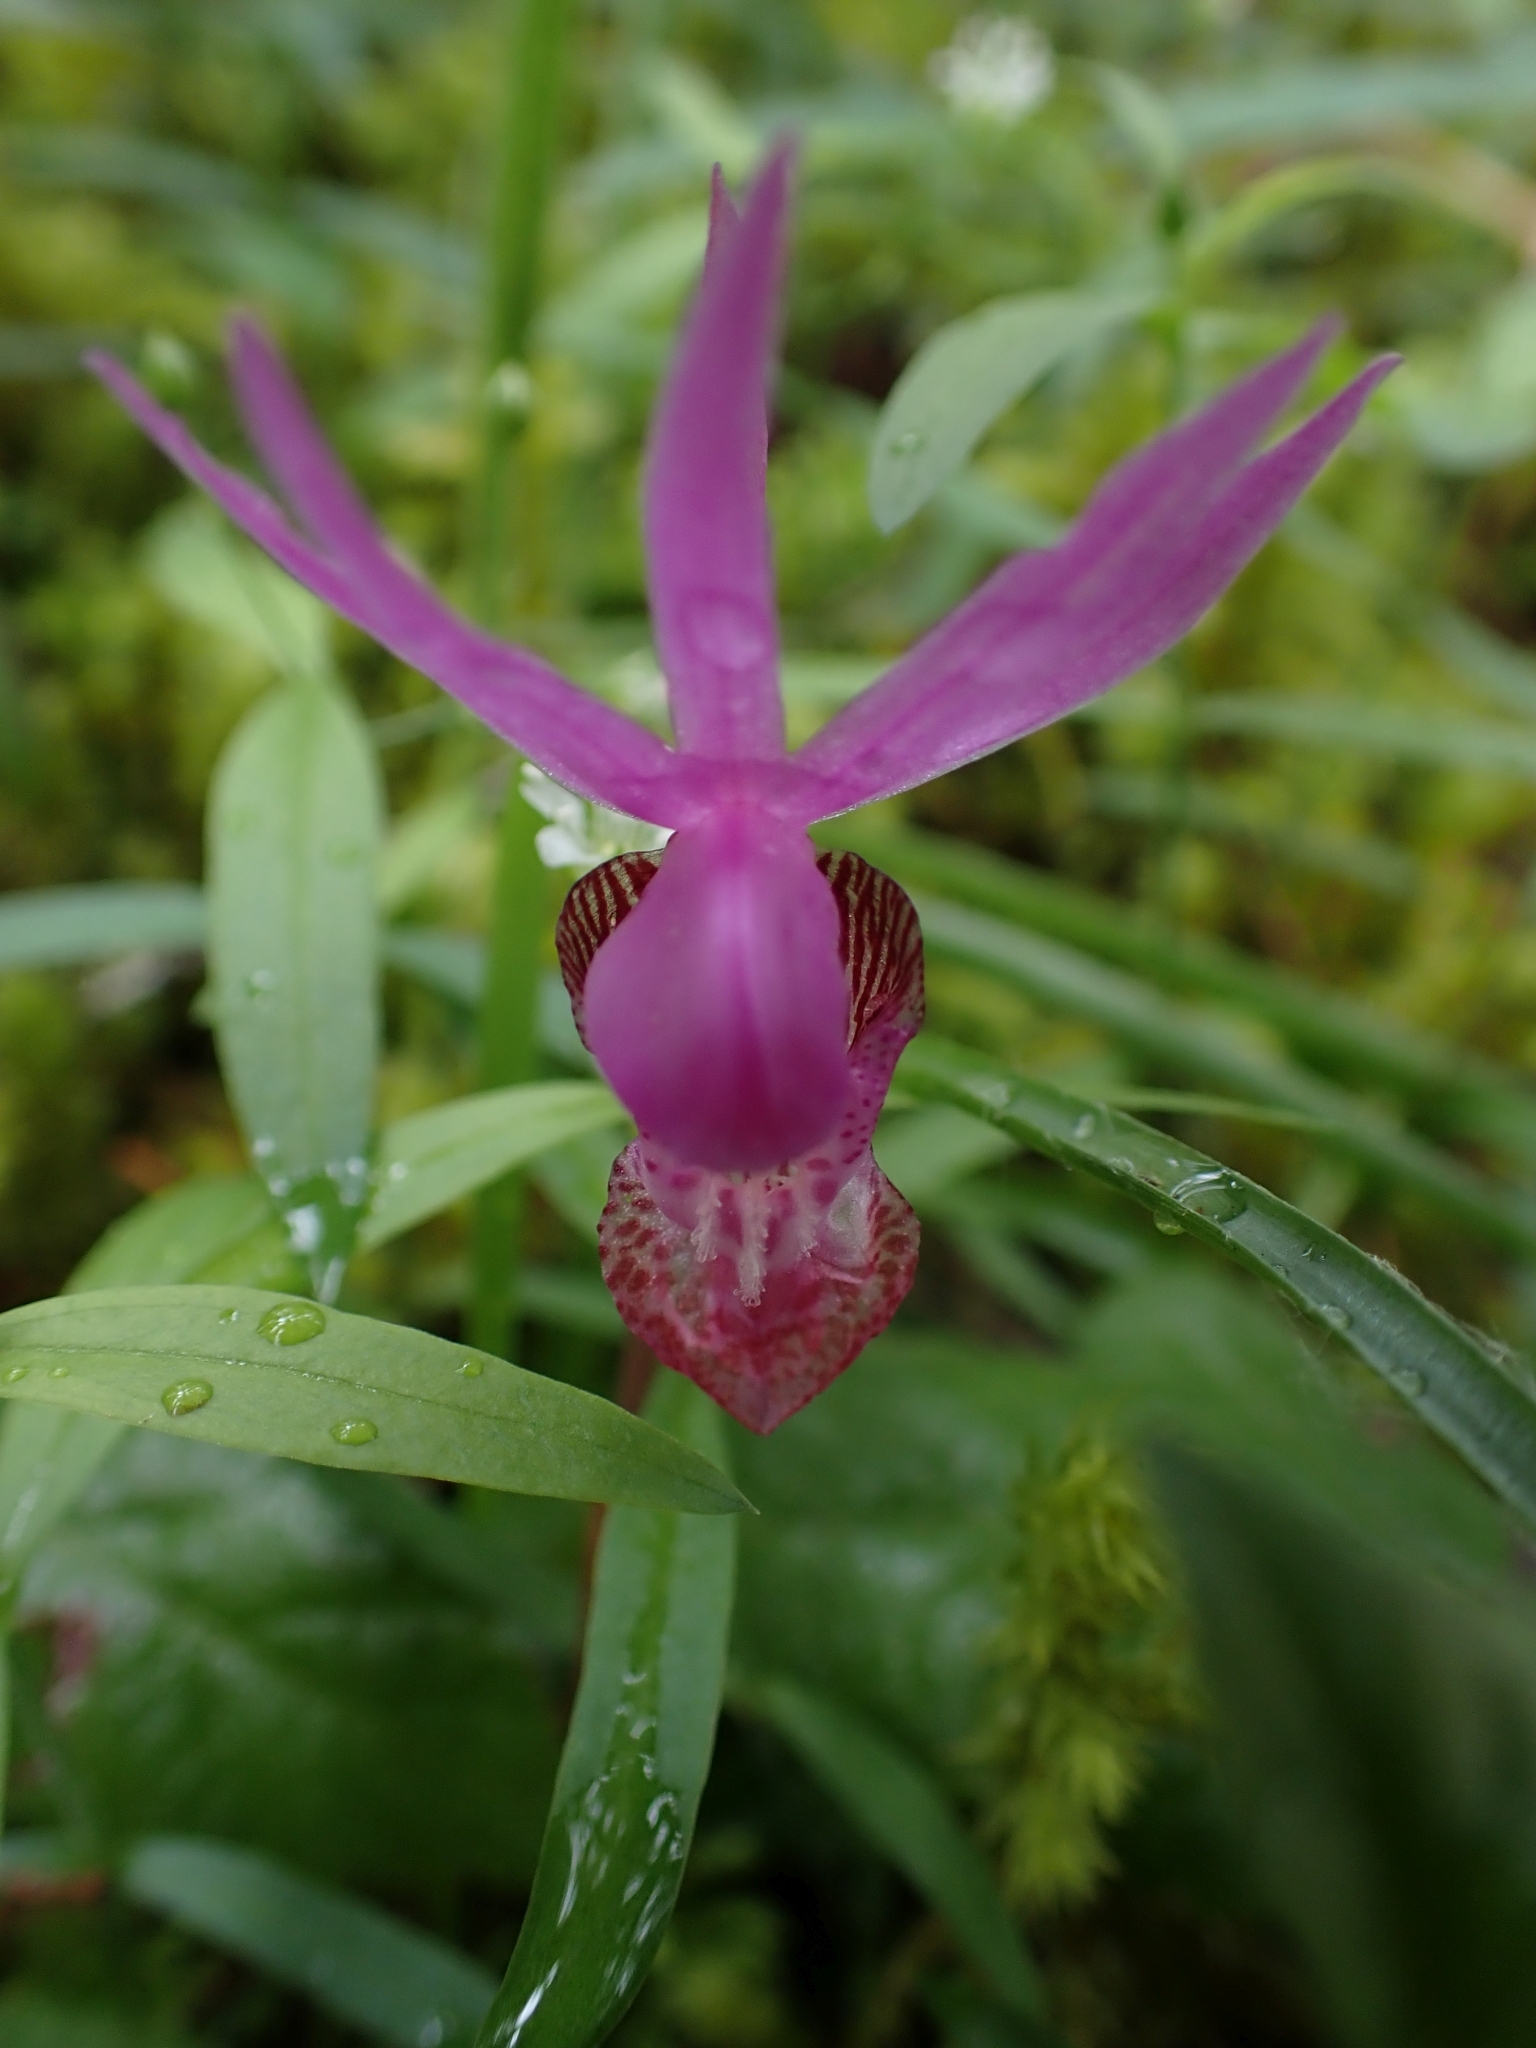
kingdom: Plantae
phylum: Tracheophyta
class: Liliopsida
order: Asparagales
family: Orchidaceae
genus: Calypso
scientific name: Calypso bulbosa
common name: Calypso
